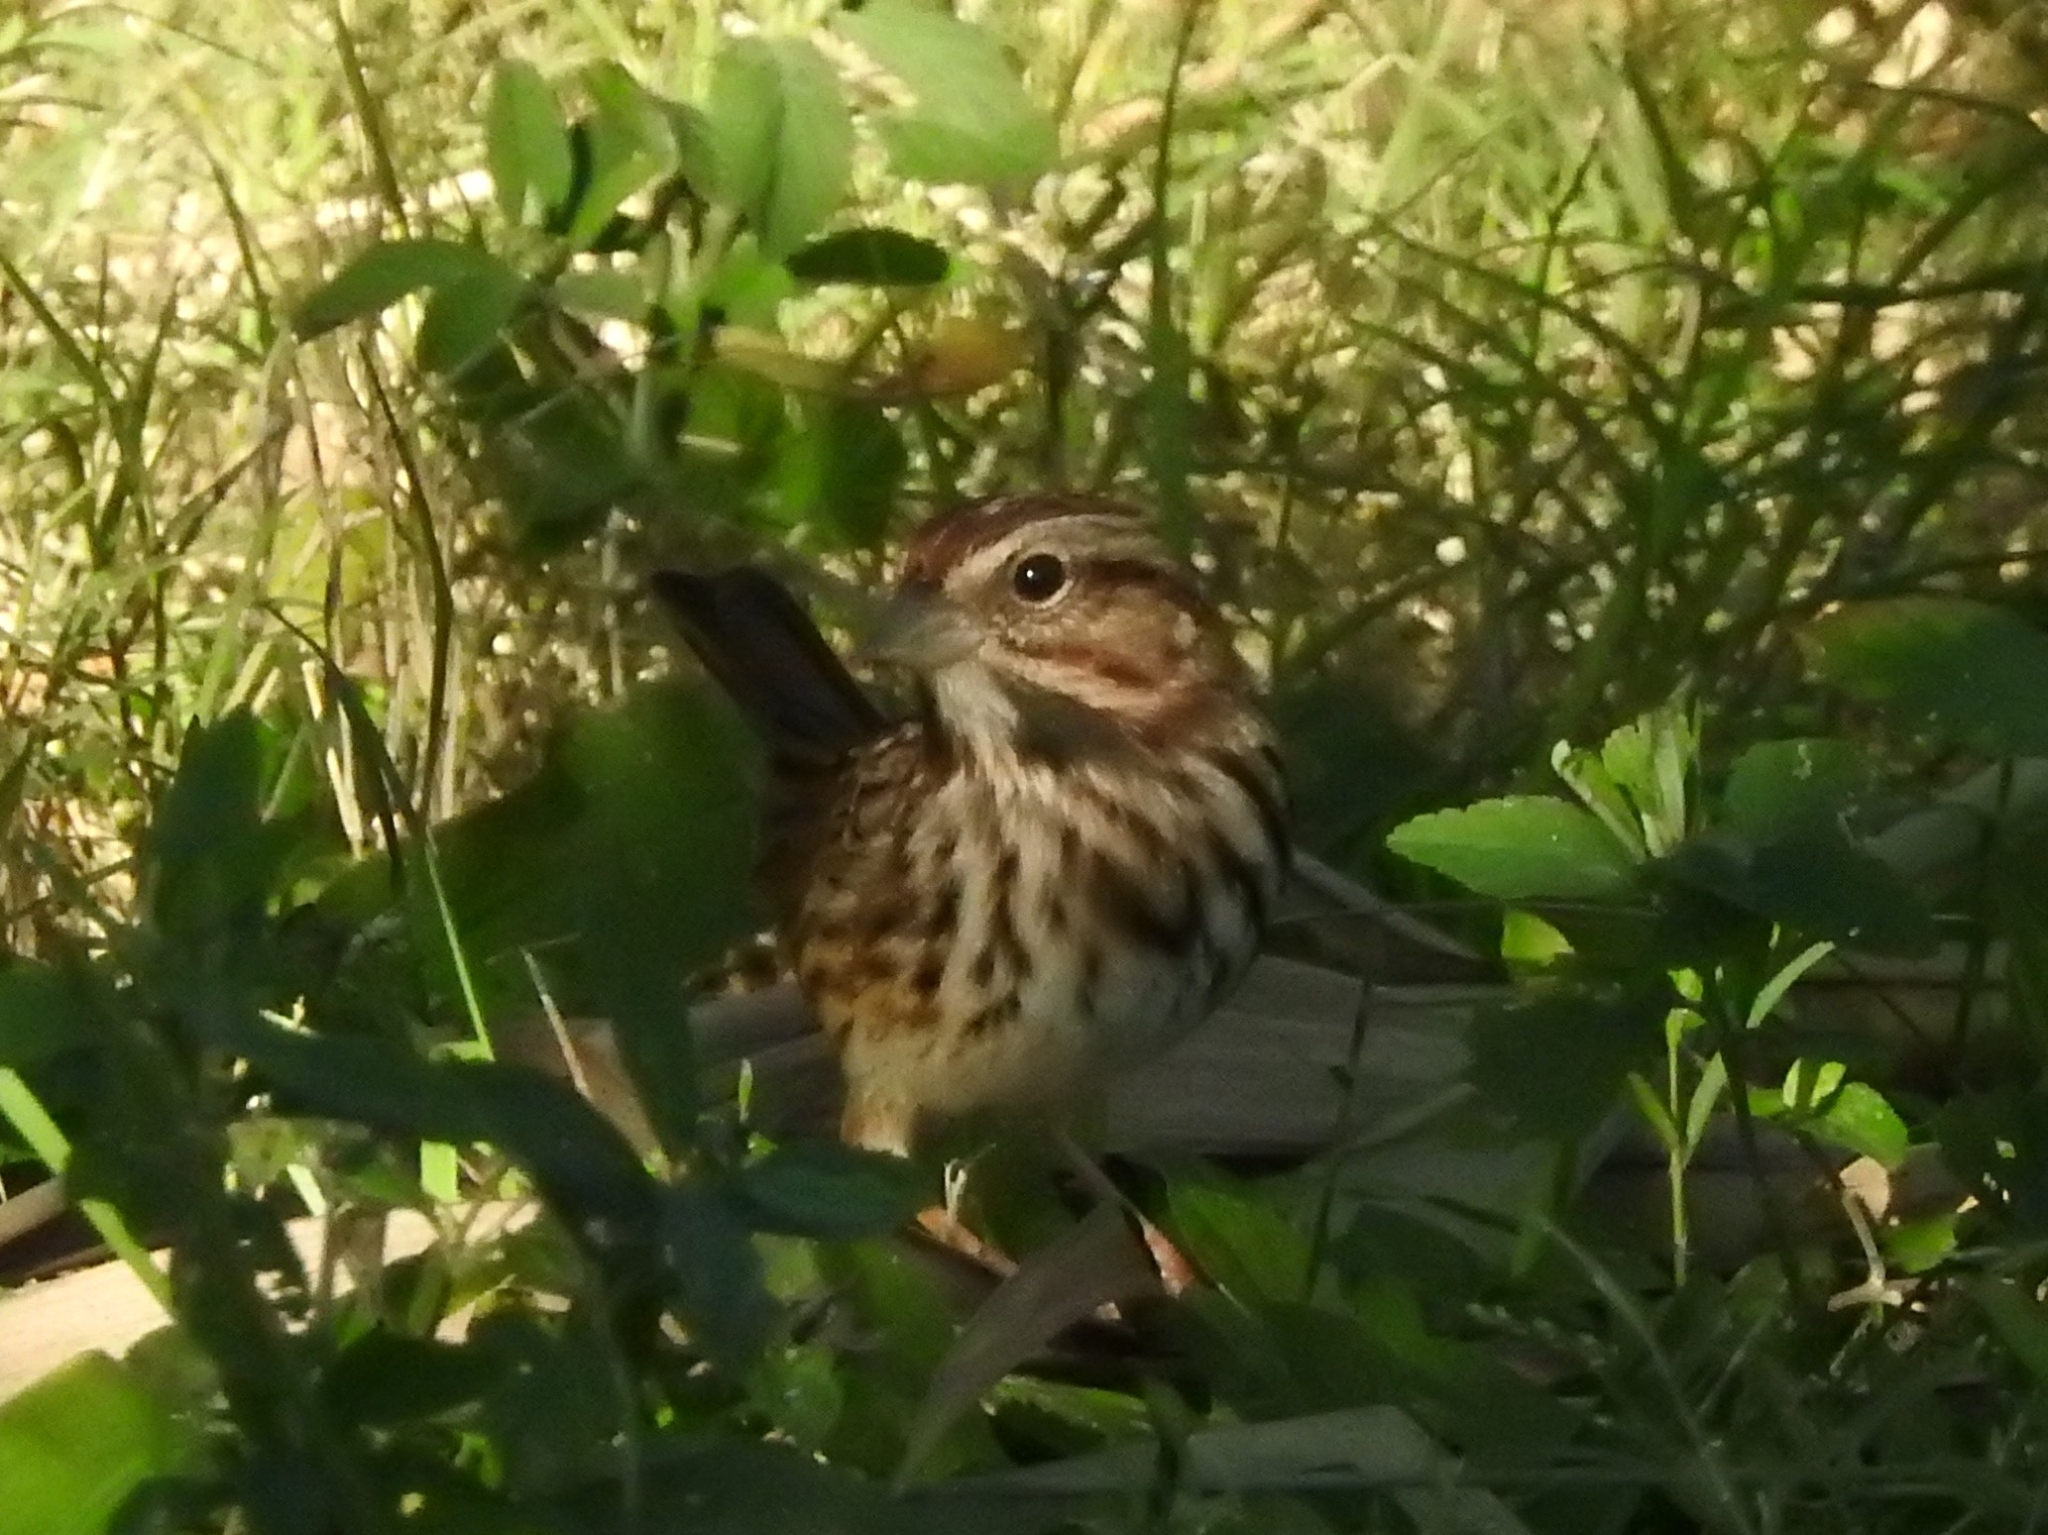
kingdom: Animalia
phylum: Chordata
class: Aves
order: Passeriformes
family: Passerellidae
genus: Melospiza
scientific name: Melospiza melodia
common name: Song sparrow
